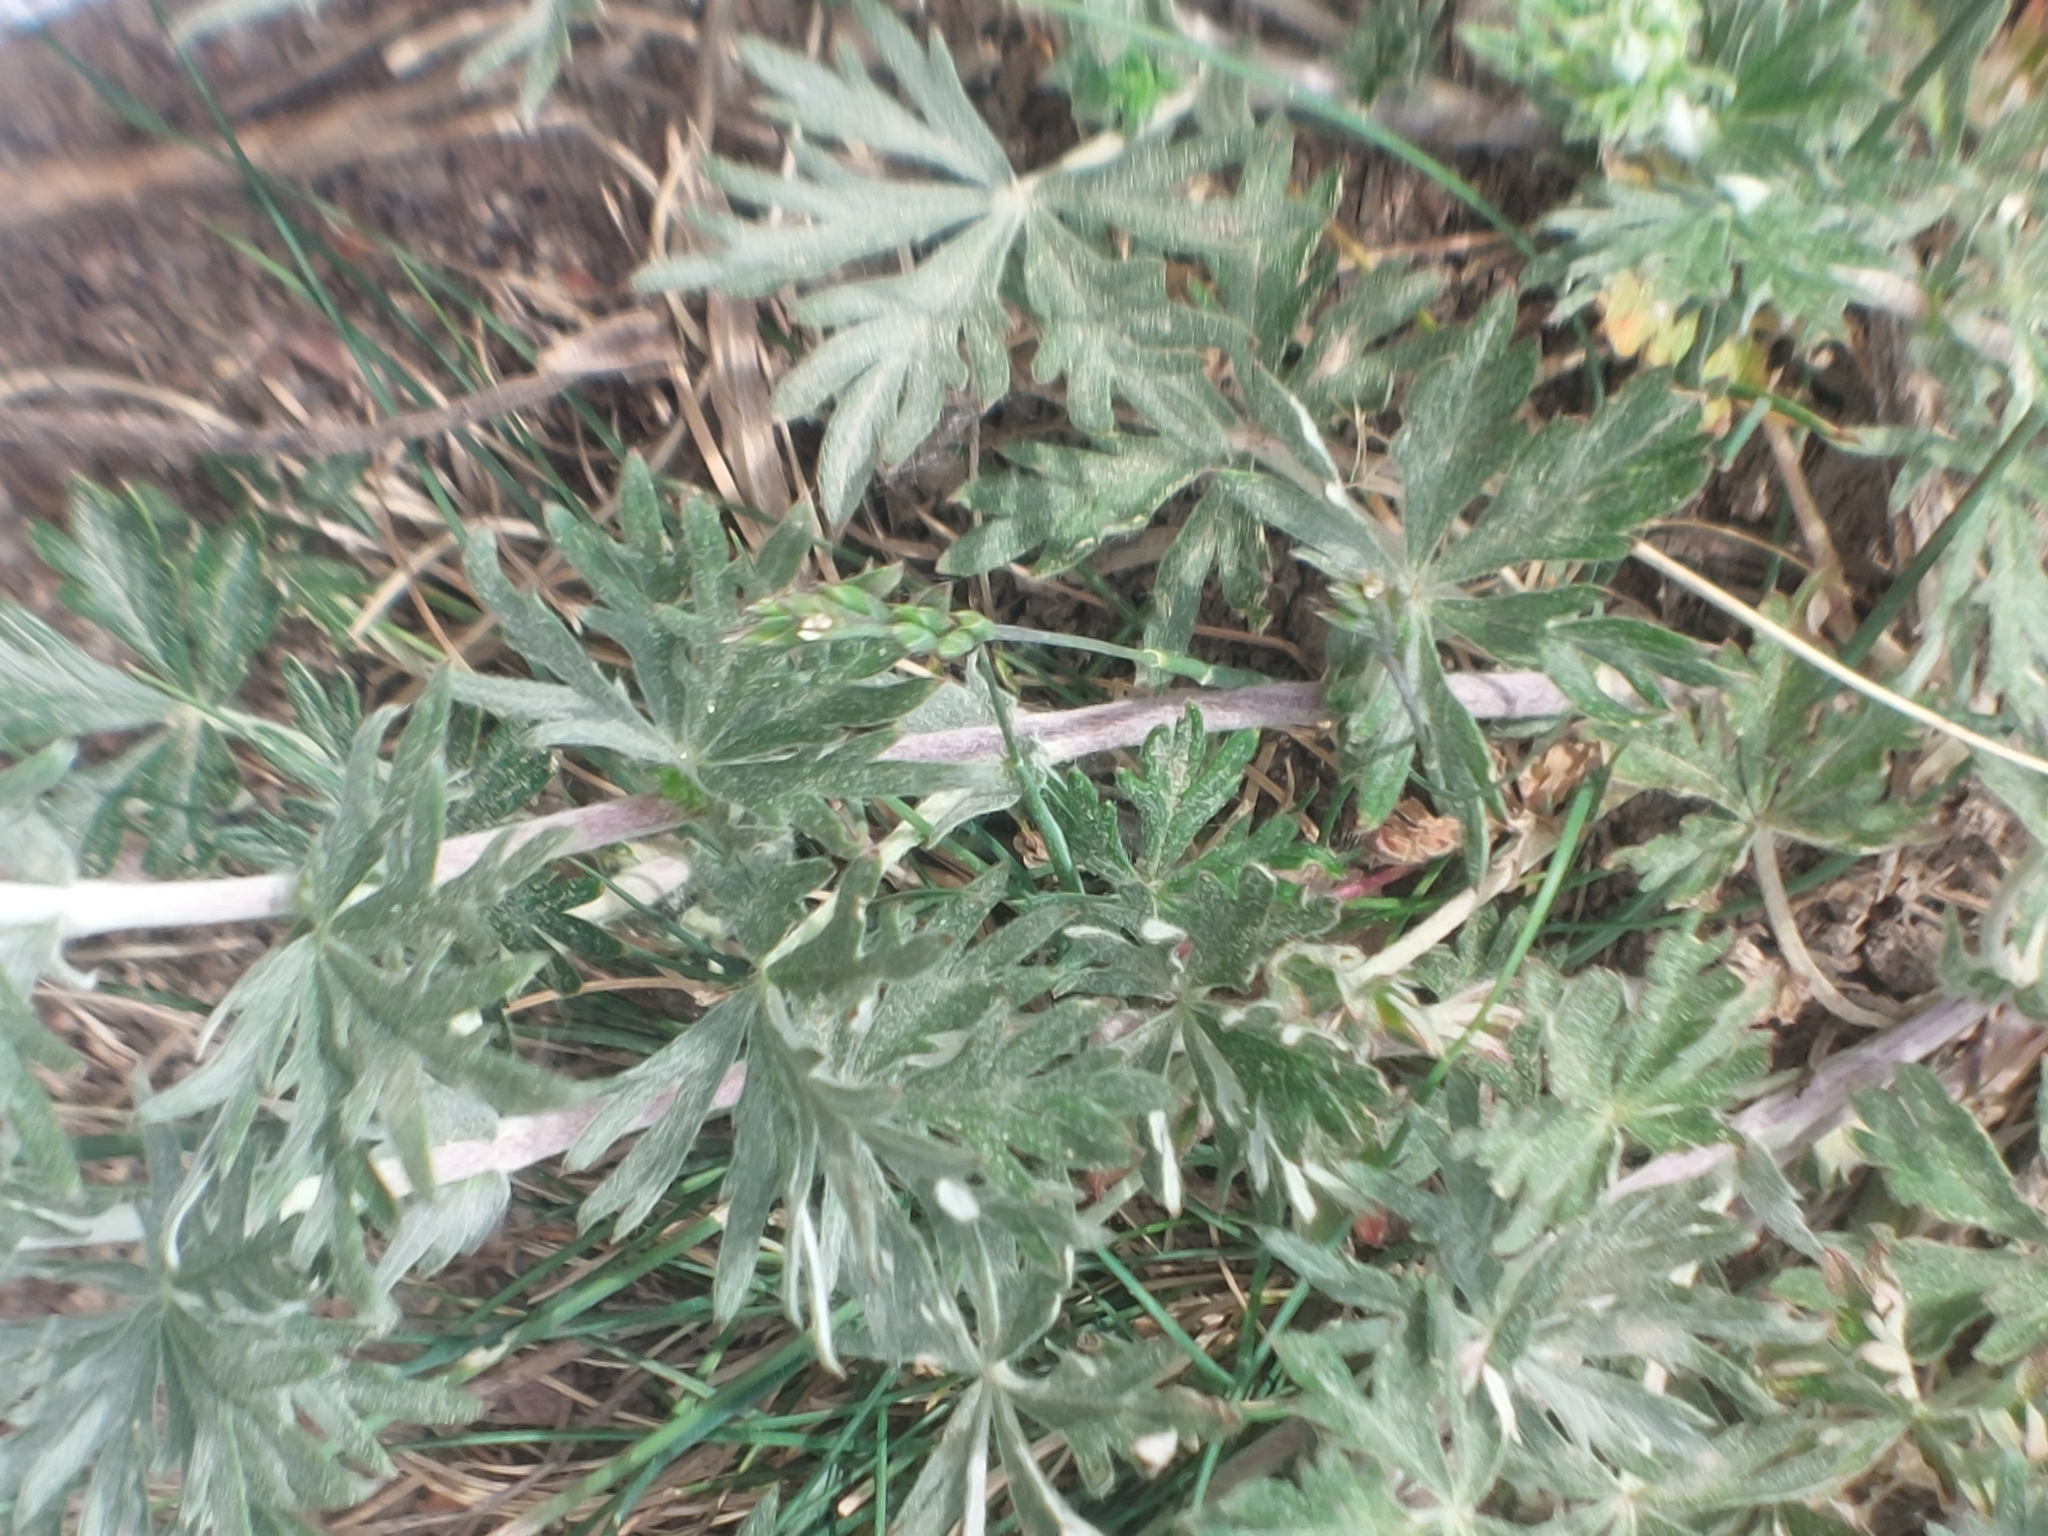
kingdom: Plantae
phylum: Tracheophyta
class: Magnoliopsida
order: Rosales
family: Rosaceae
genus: Potentilla
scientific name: Potentilla argentea
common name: Hoary cinquefoil
